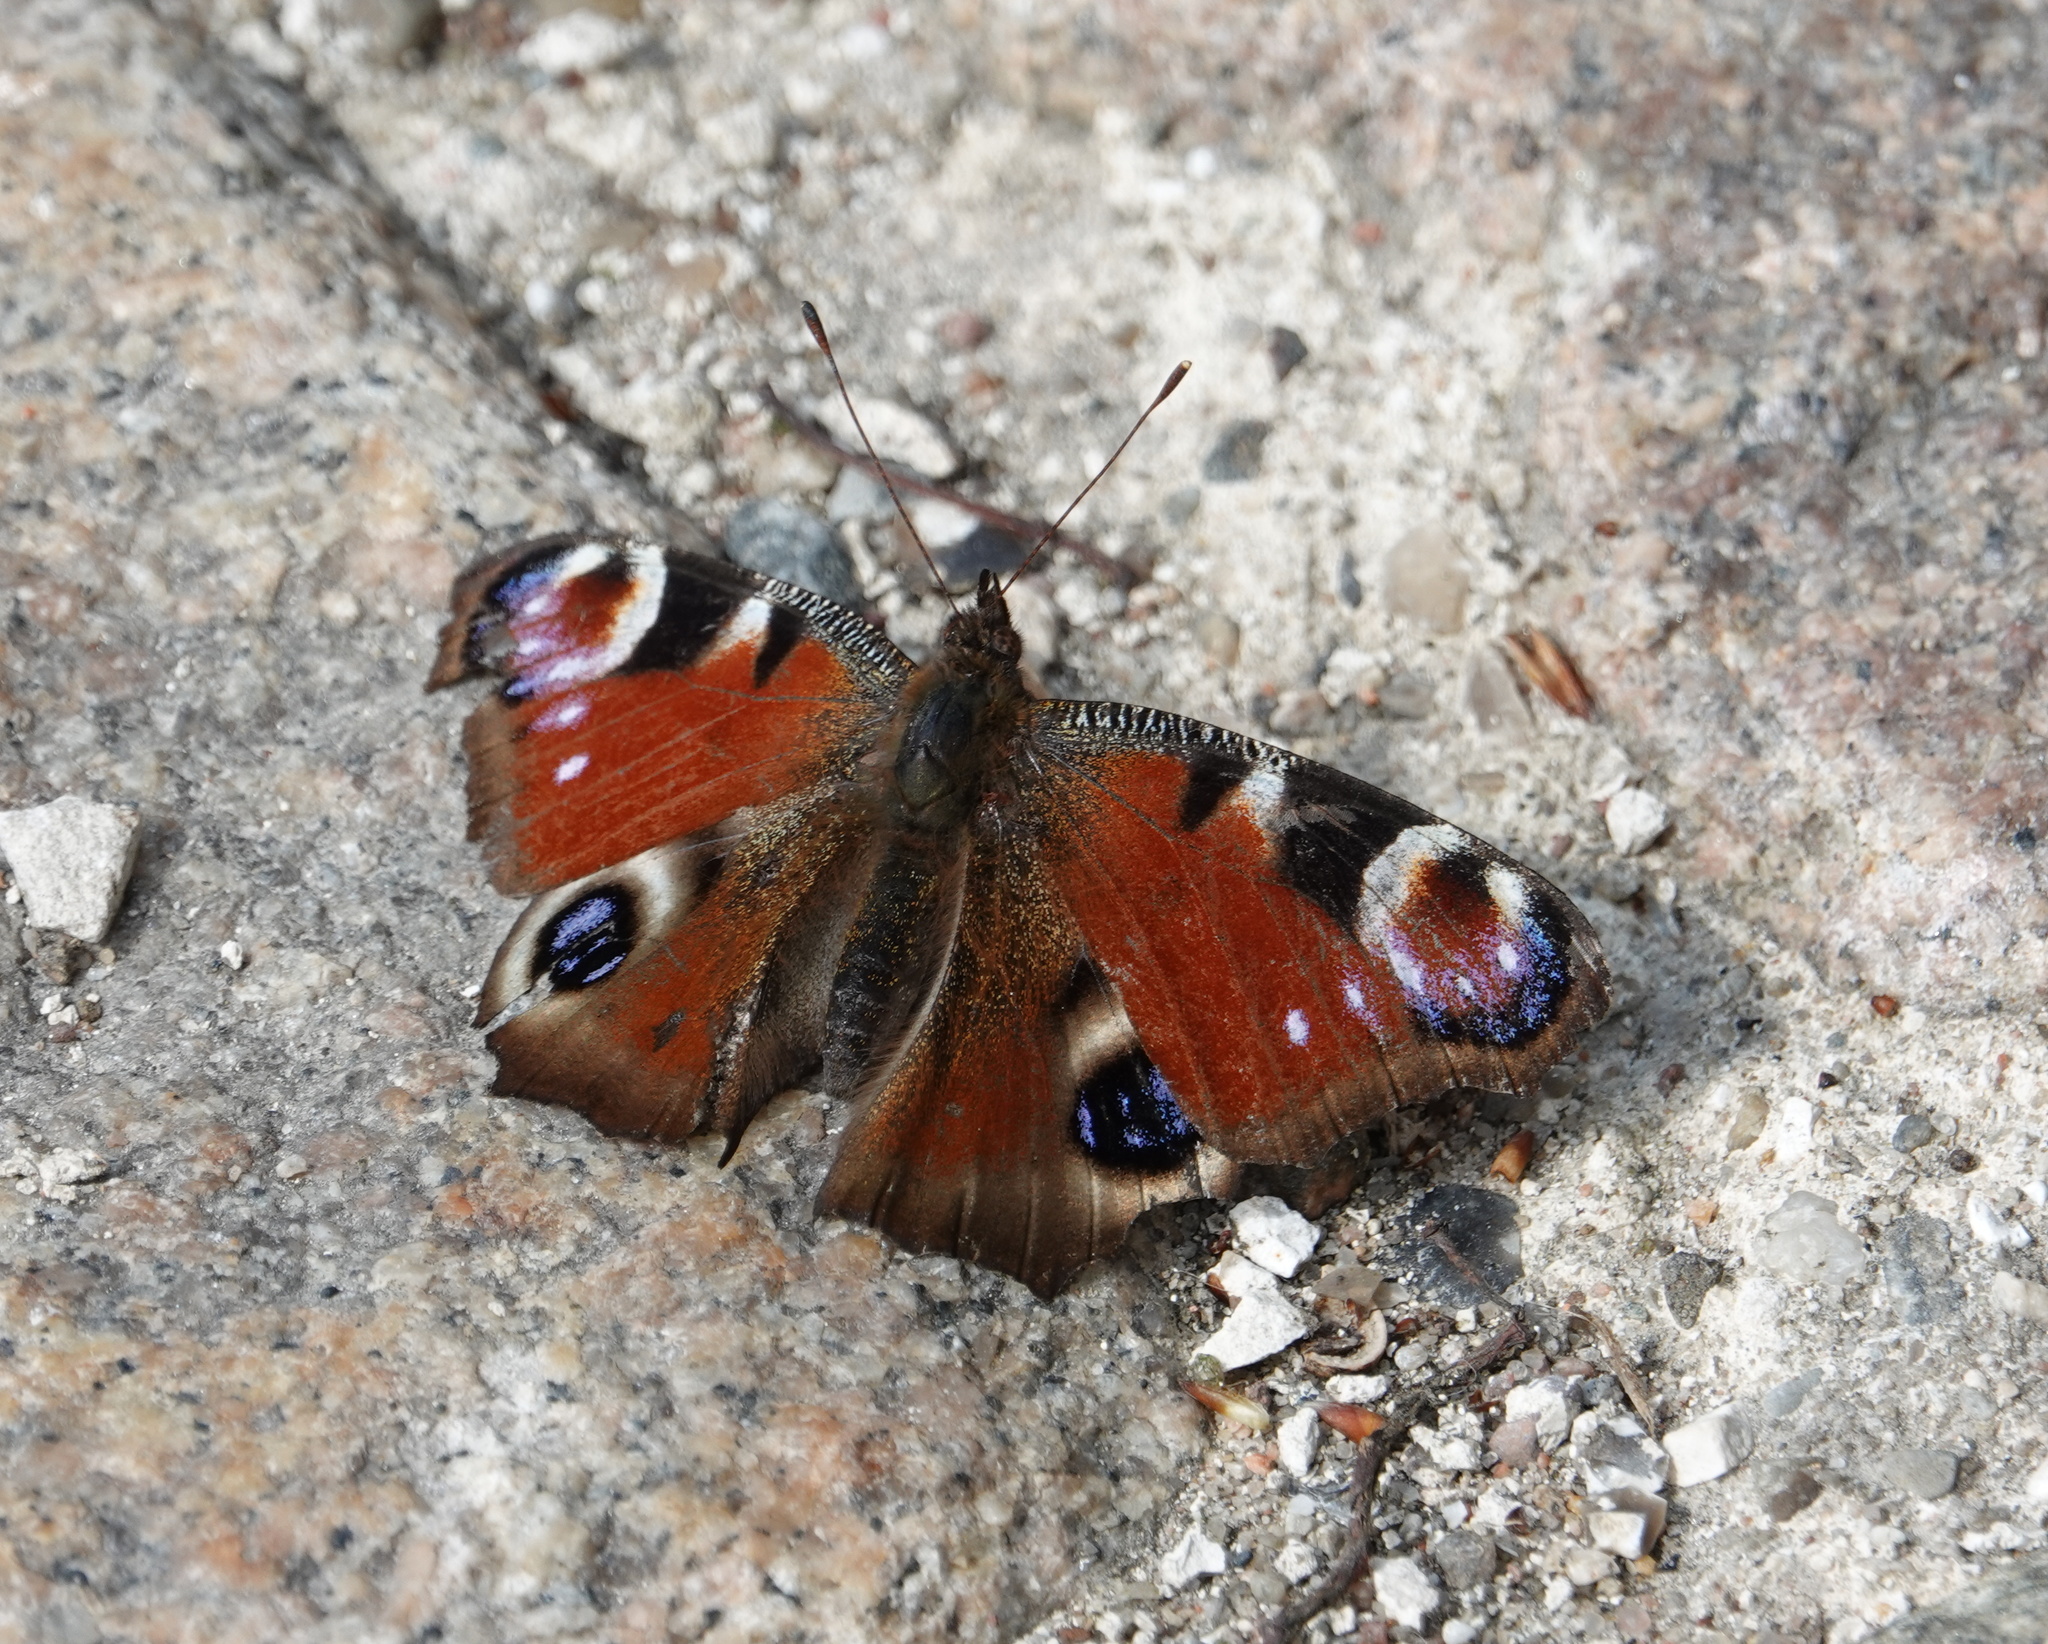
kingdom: Animalia
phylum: Arthropoda
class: Insecta
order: Lepidoptera
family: Nymphalidae
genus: Aglais
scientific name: Aglais io
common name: Peacock
